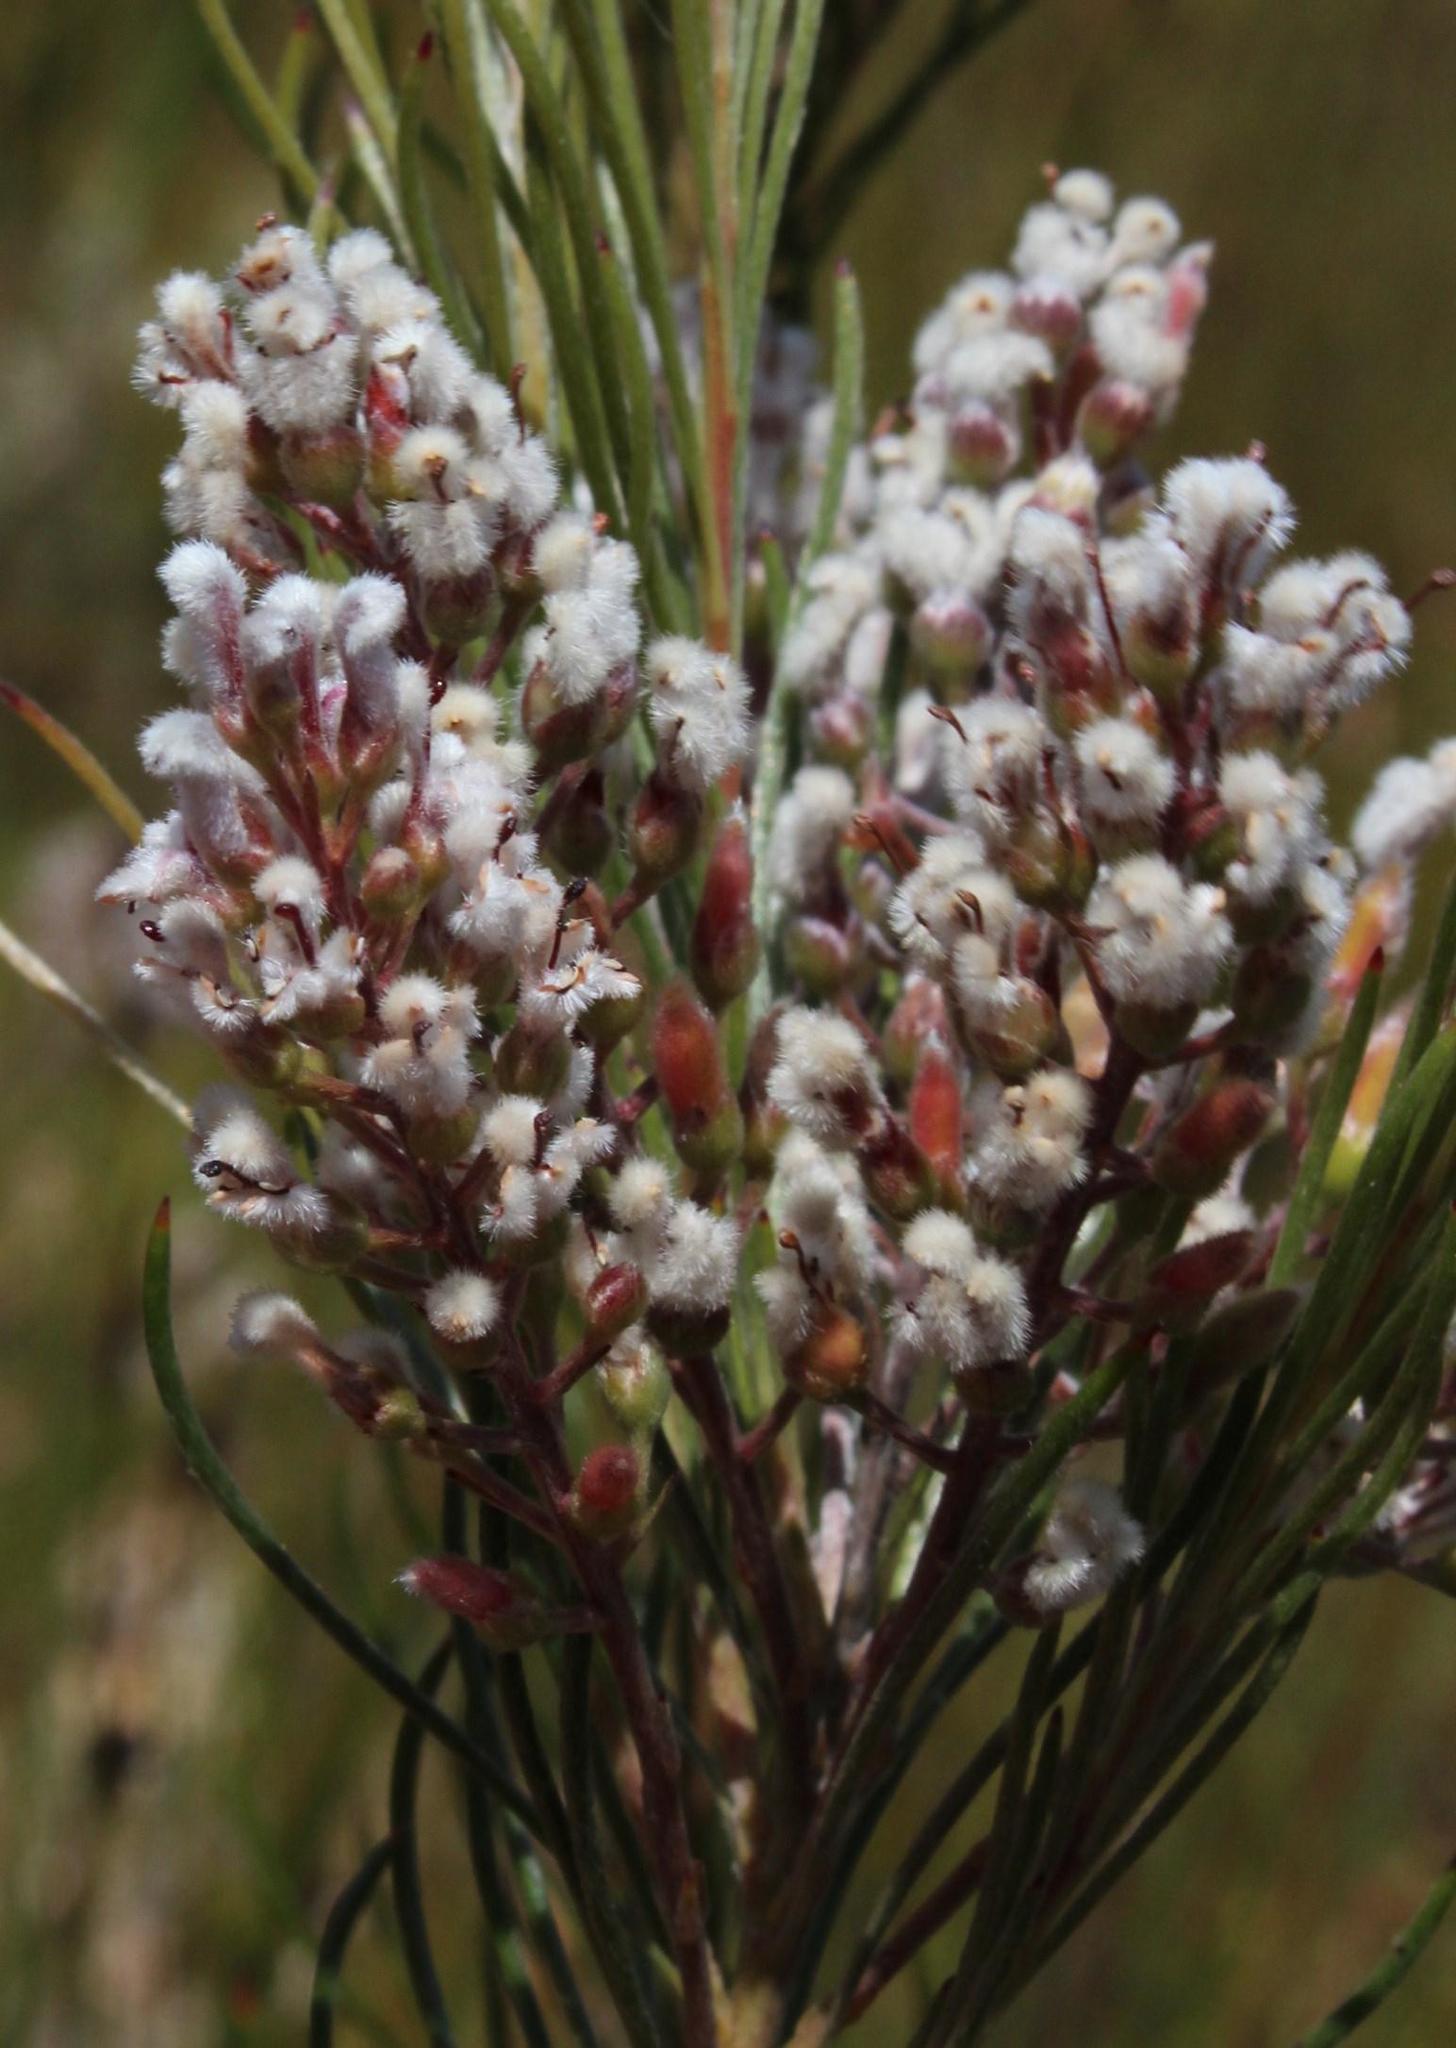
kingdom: Plantae
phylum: Tracheophyta
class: Magnoliopsida
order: Proteales
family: Proteaceae
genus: Spatalla
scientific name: Spatalla racemosa
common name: Lax-stalked spoon
